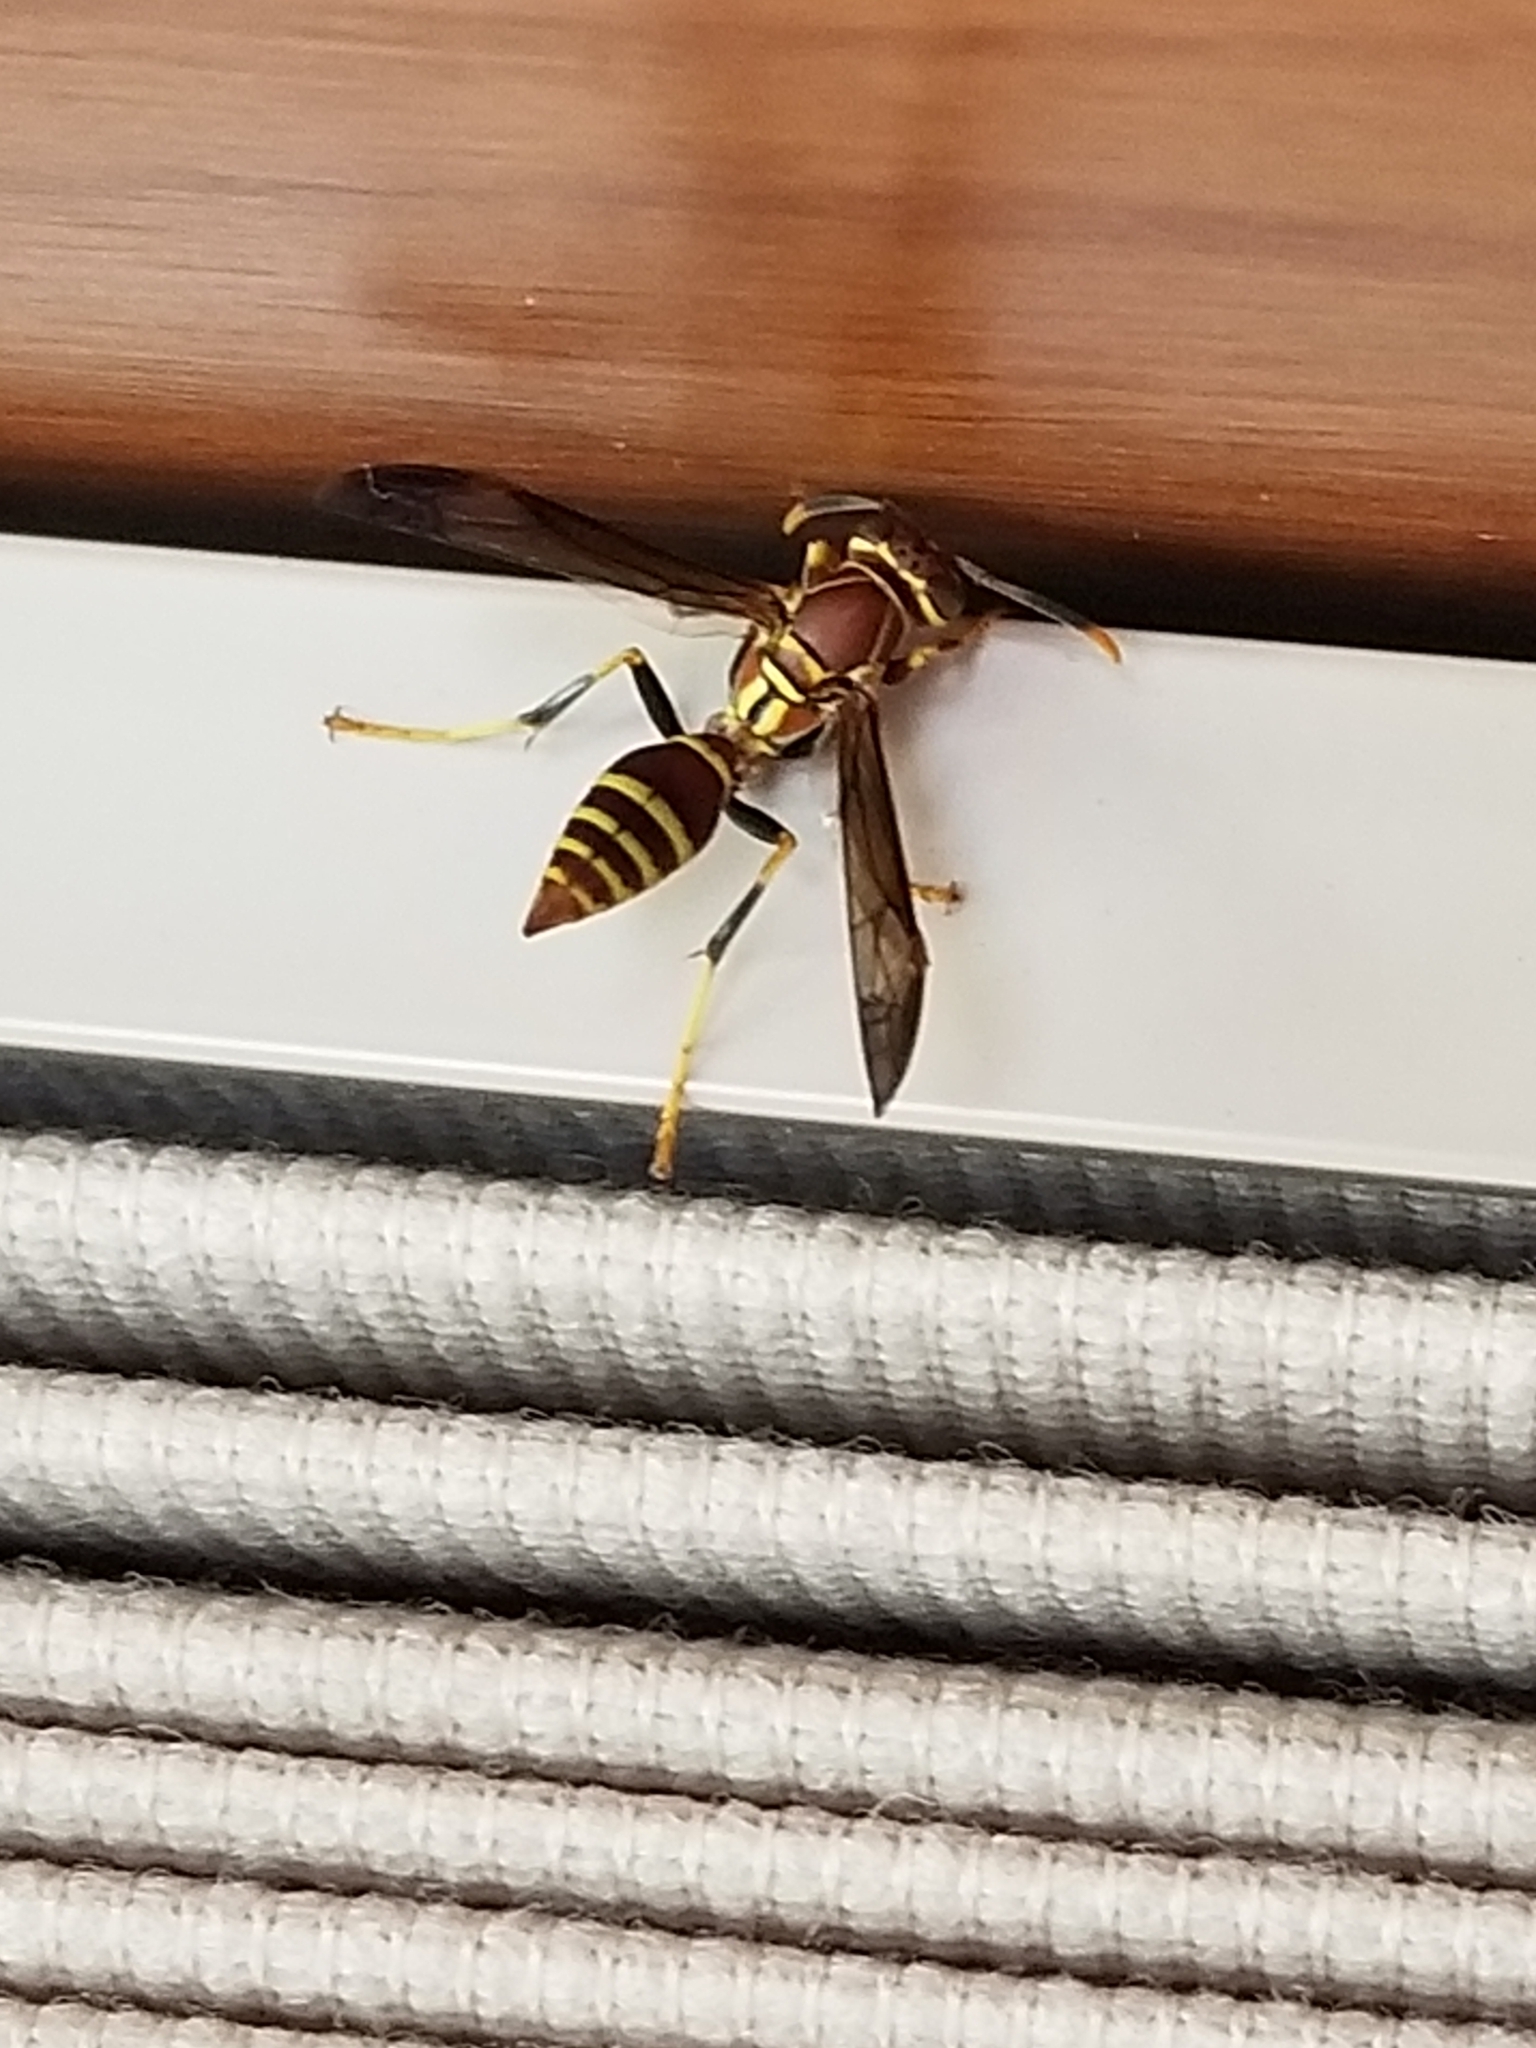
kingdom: Animalia
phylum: Arthropoda
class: Insecta
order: Hymenoptera
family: Eumenidae
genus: Polistes
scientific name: Polistes exclamans
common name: Paper wasp
